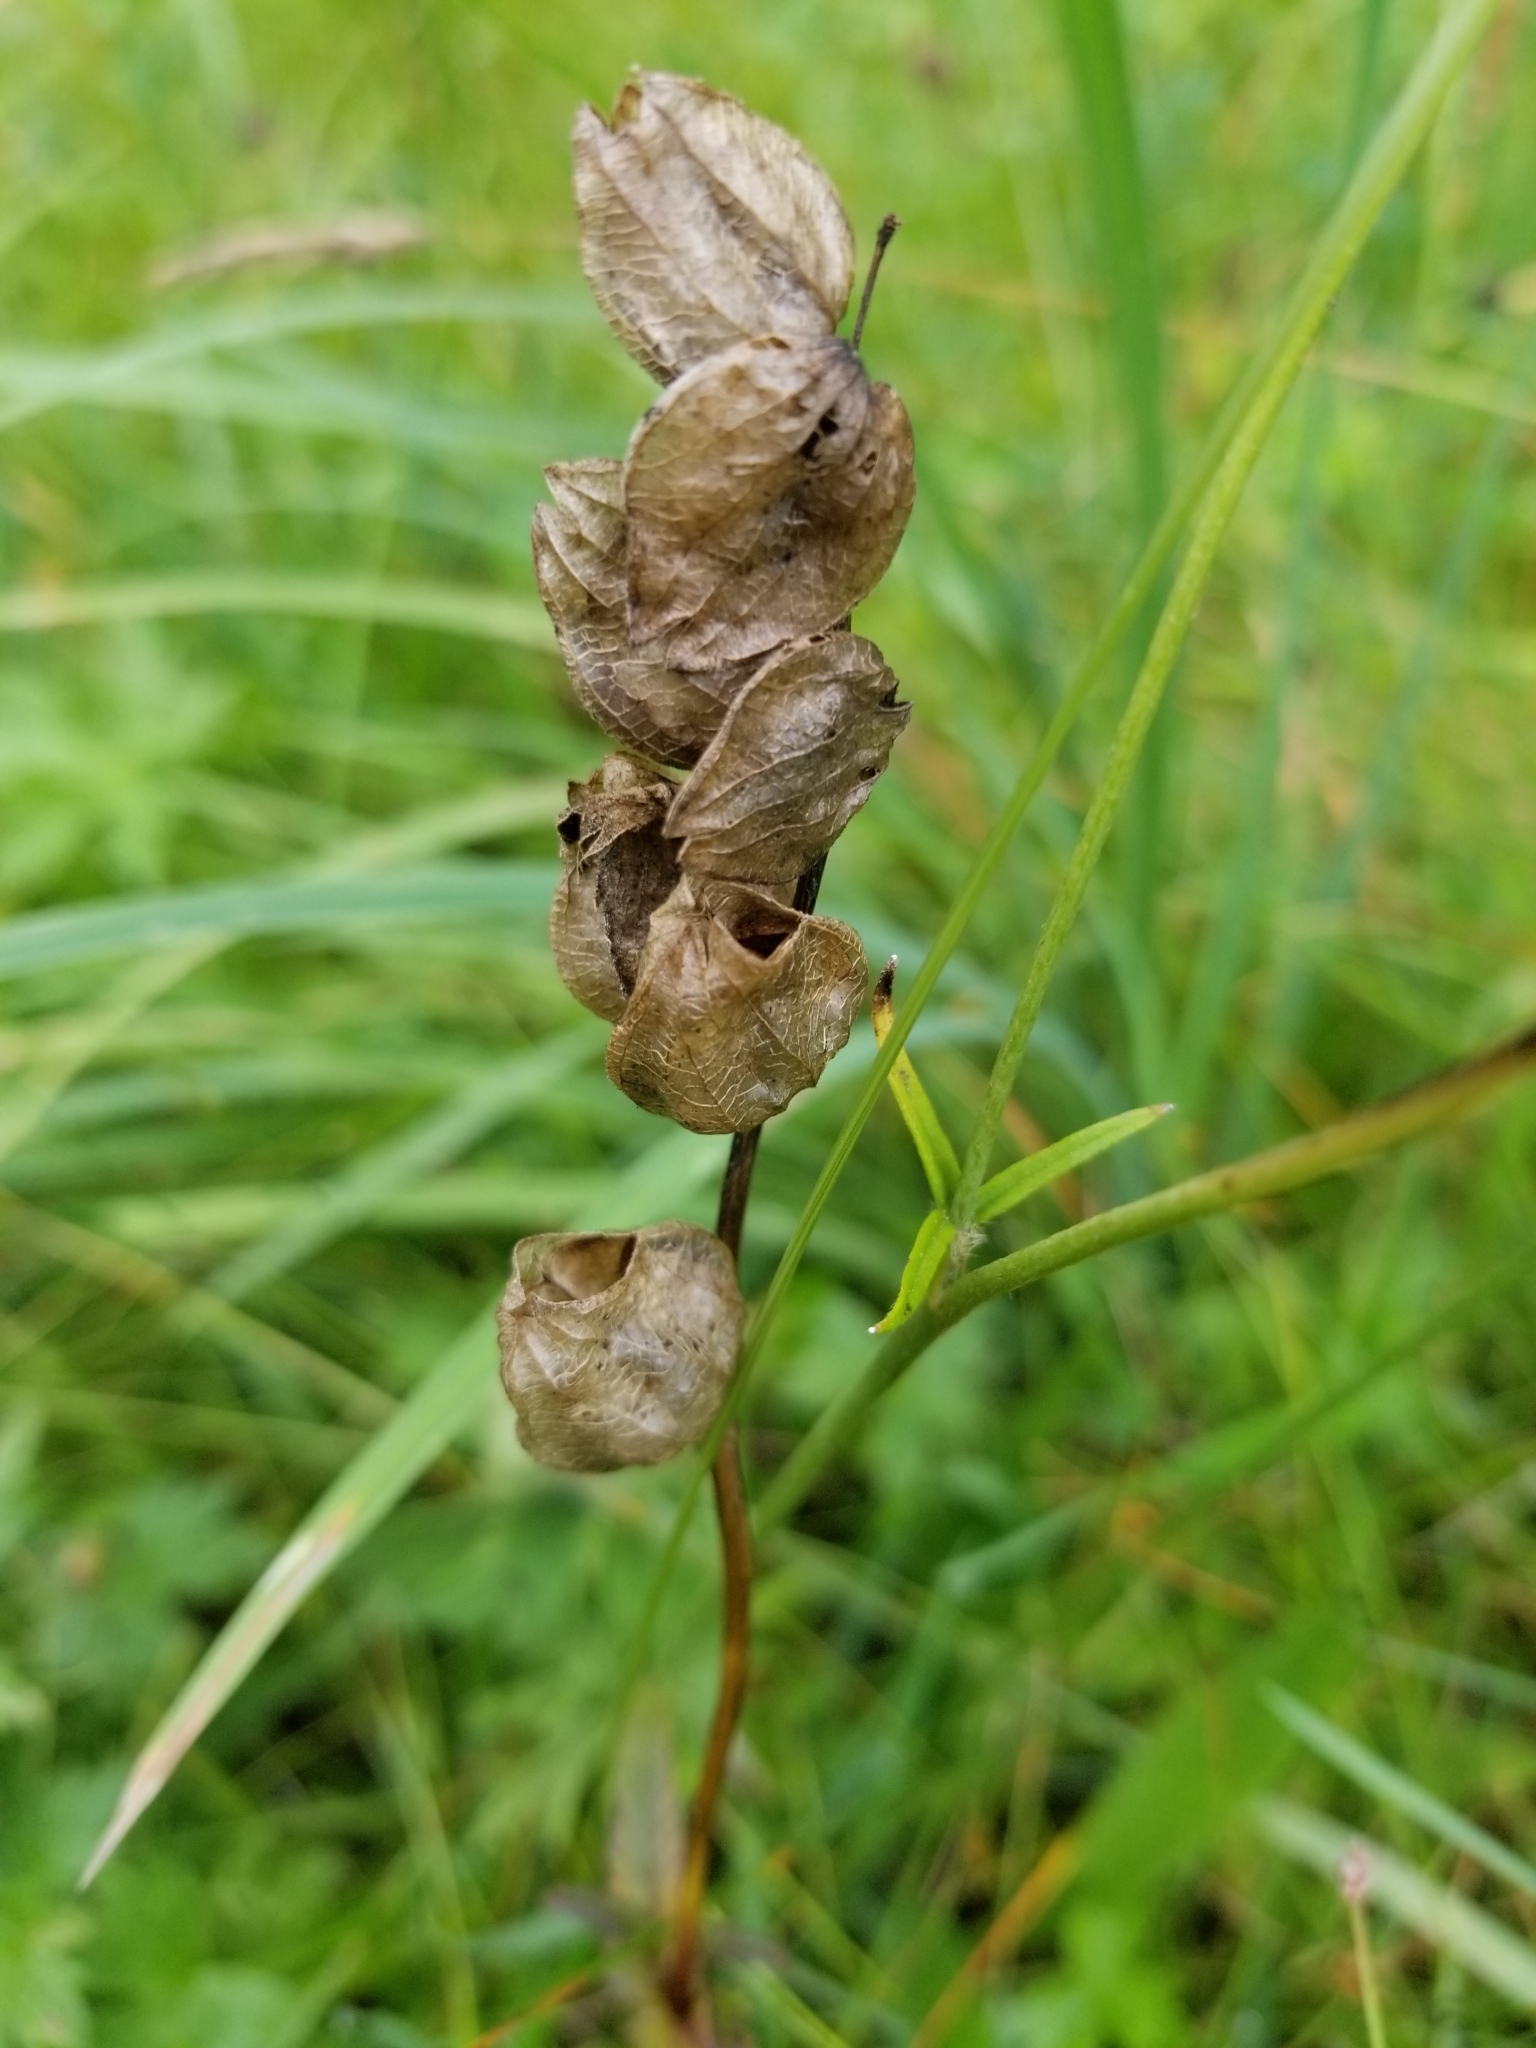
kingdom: Plantae
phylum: Tracheophyta
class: Magnoliopsida
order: Lamiales
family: Orobanchaceae
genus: Rhinanthus
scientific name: Rhinanthus minor
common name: Yellow-rattle
